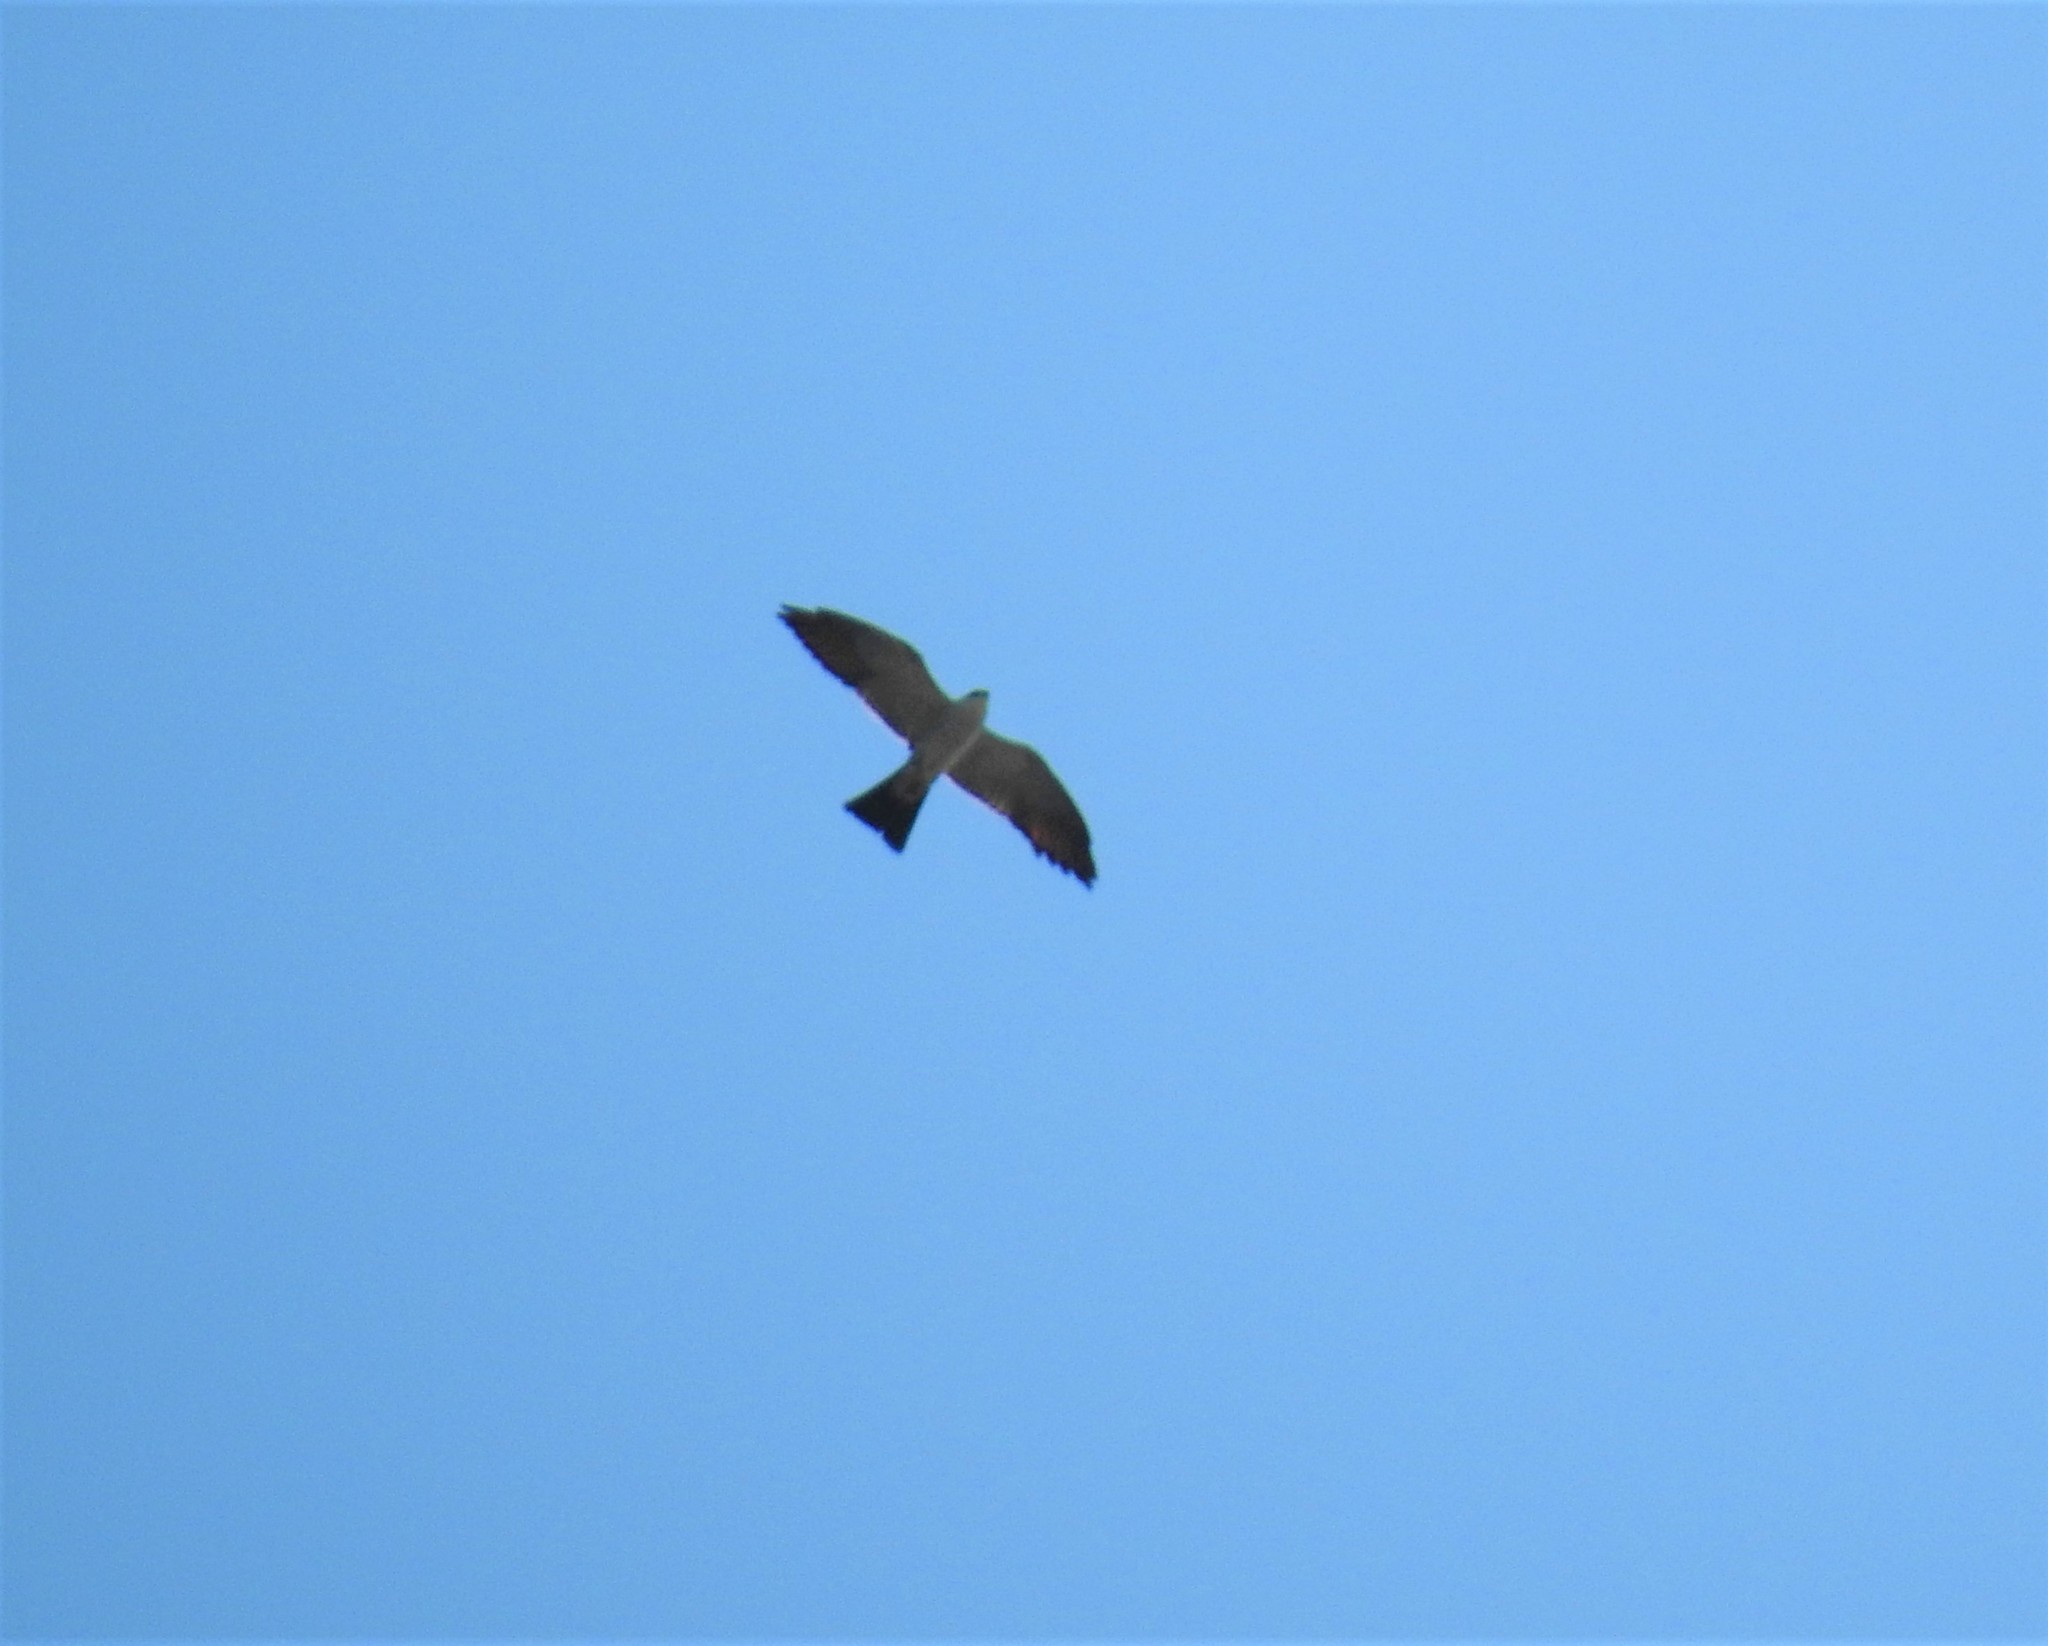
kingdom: Animalia
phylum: Chordata
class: Aves
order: Accipitriformes
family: Accipitridae
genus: Ictinia
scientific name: Ictinia mississippiensis
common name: Mississippi kite
